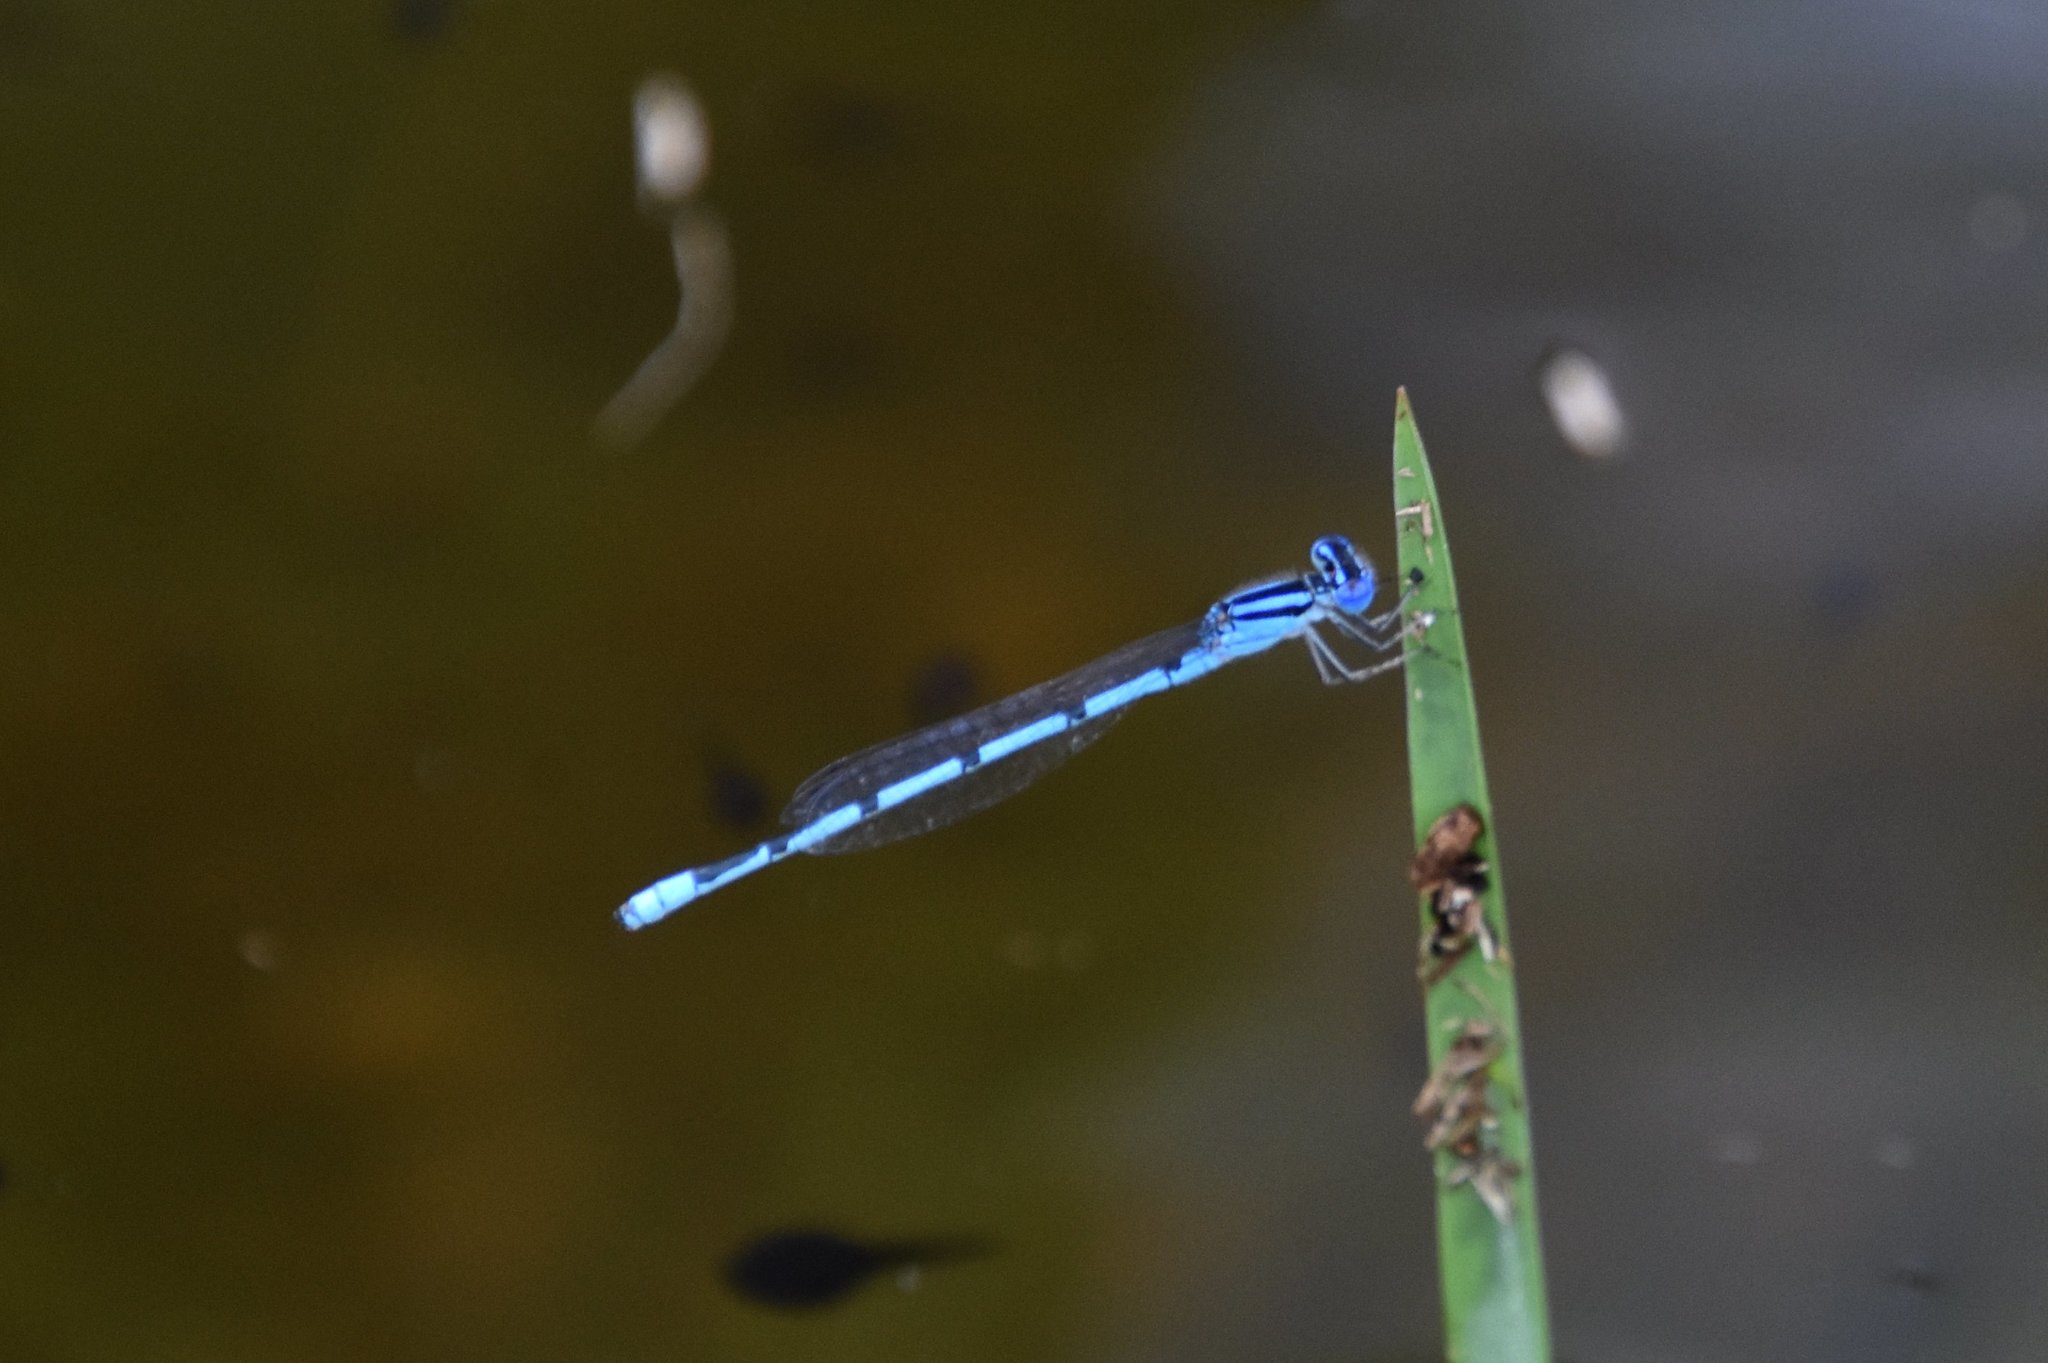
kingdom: Animalia
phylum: Arthropoda
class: Insecta
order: Odonata
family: Coenagrionidae
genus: Enallagma
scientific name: Enallagma doubledayi
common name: Atlantic bluet
